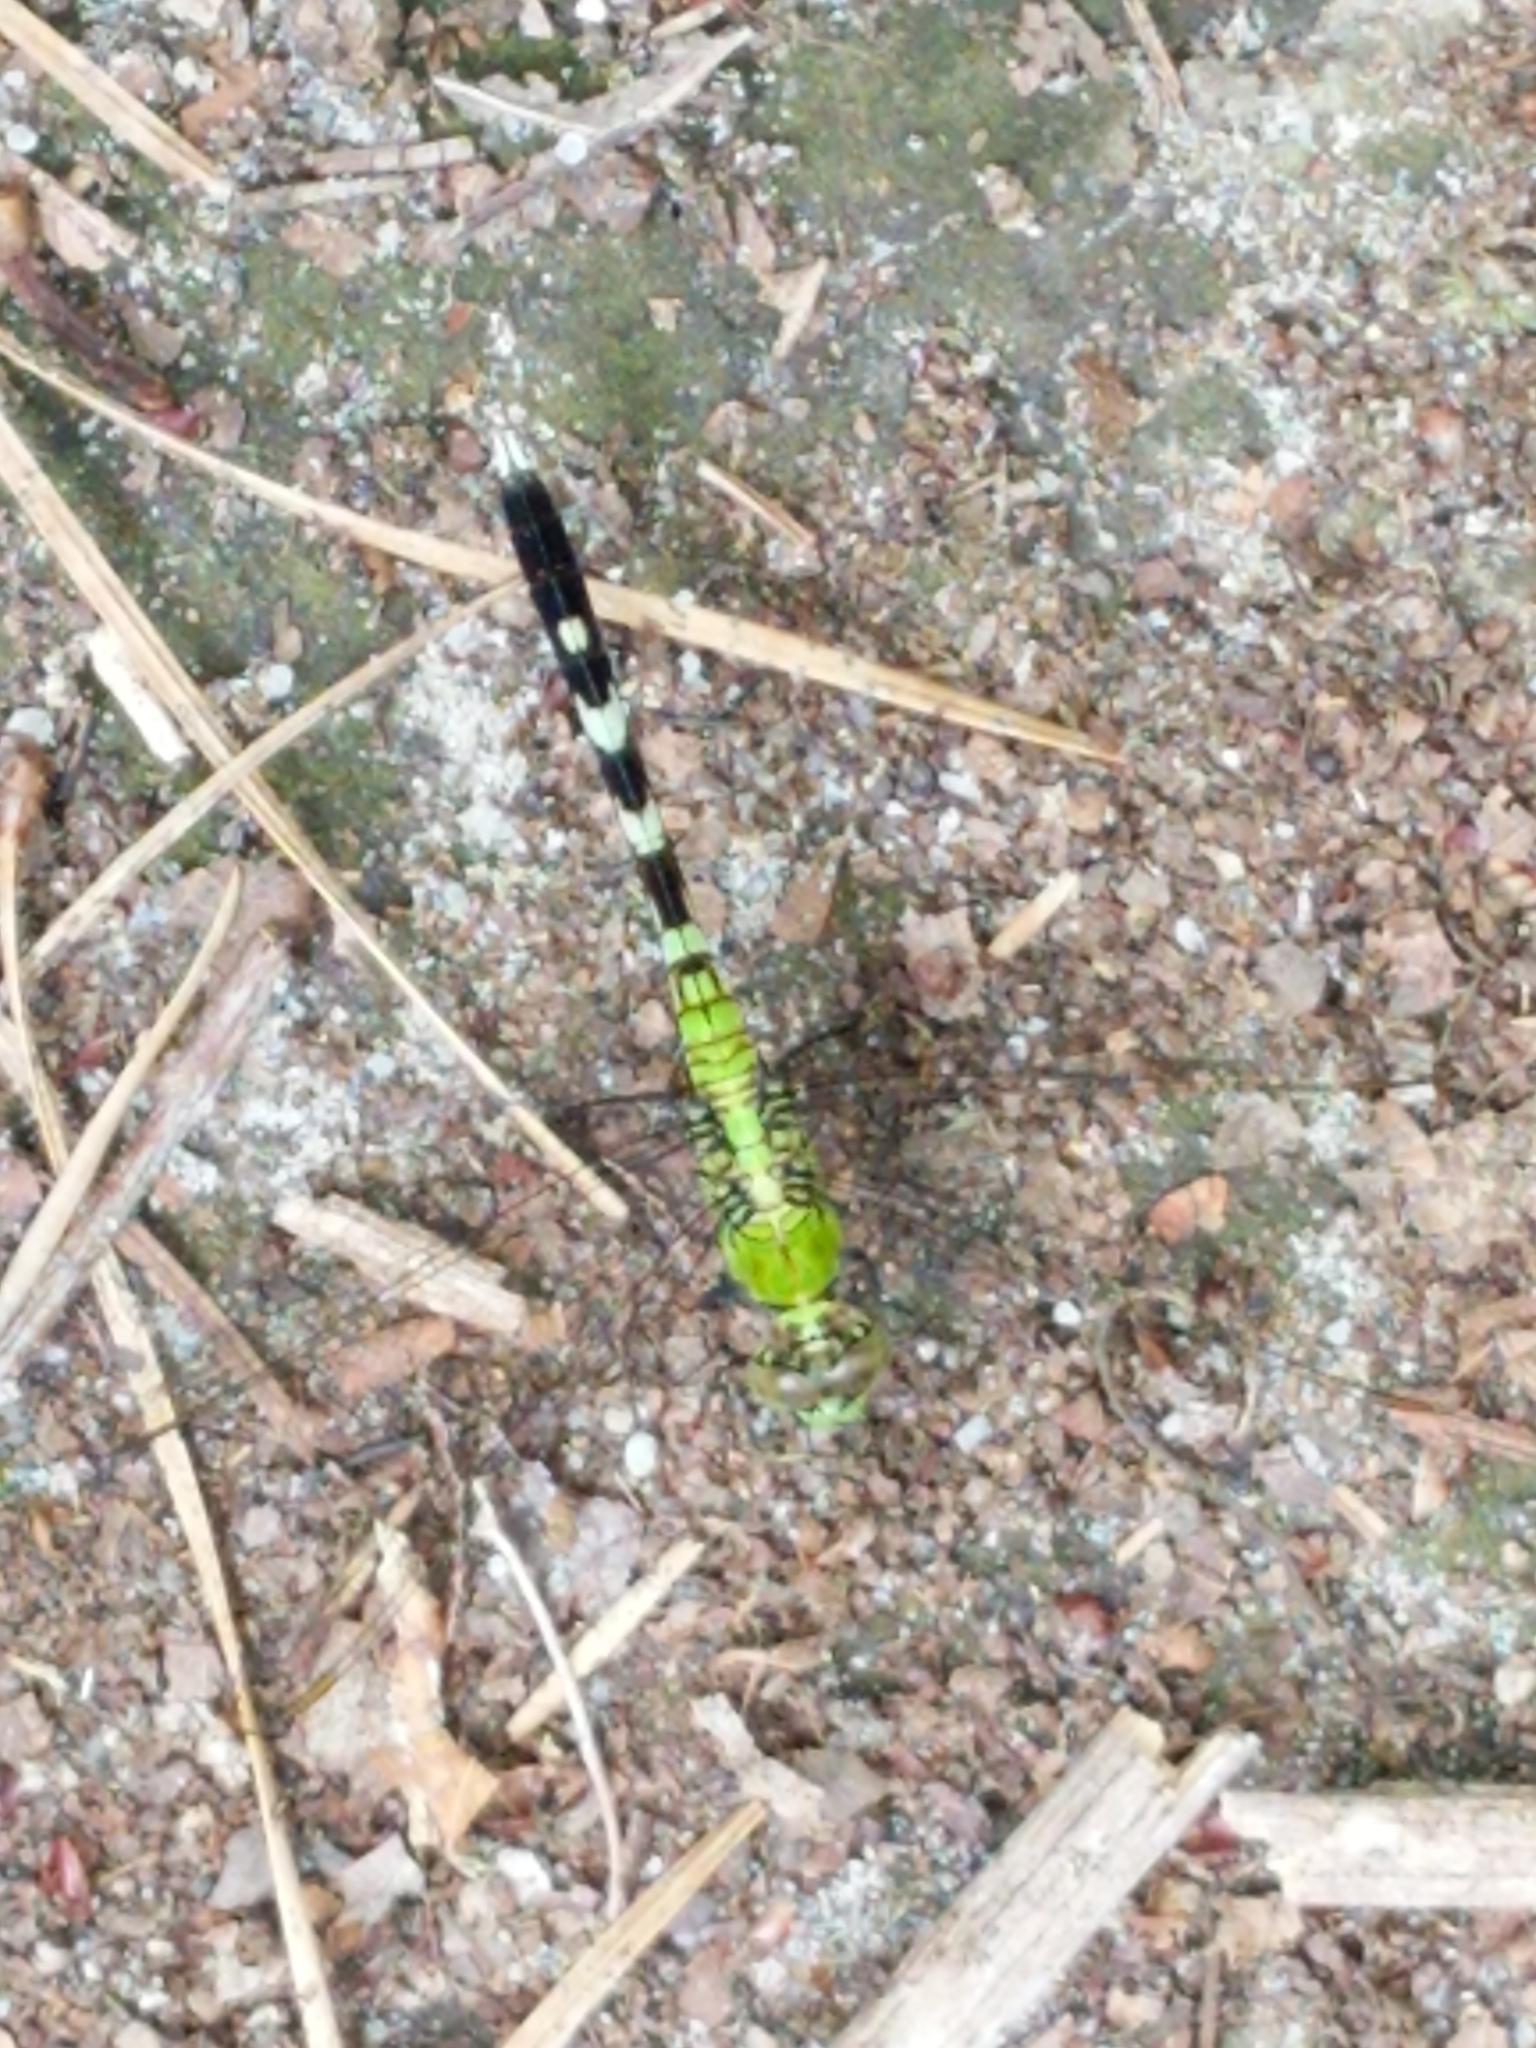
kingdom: Animalia
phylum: Arthropoda
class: Insecta
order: Odonata
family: Libellulidae
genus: Erythemis
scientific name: Erythemis simplicicollis
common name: Eastern pondhawk
